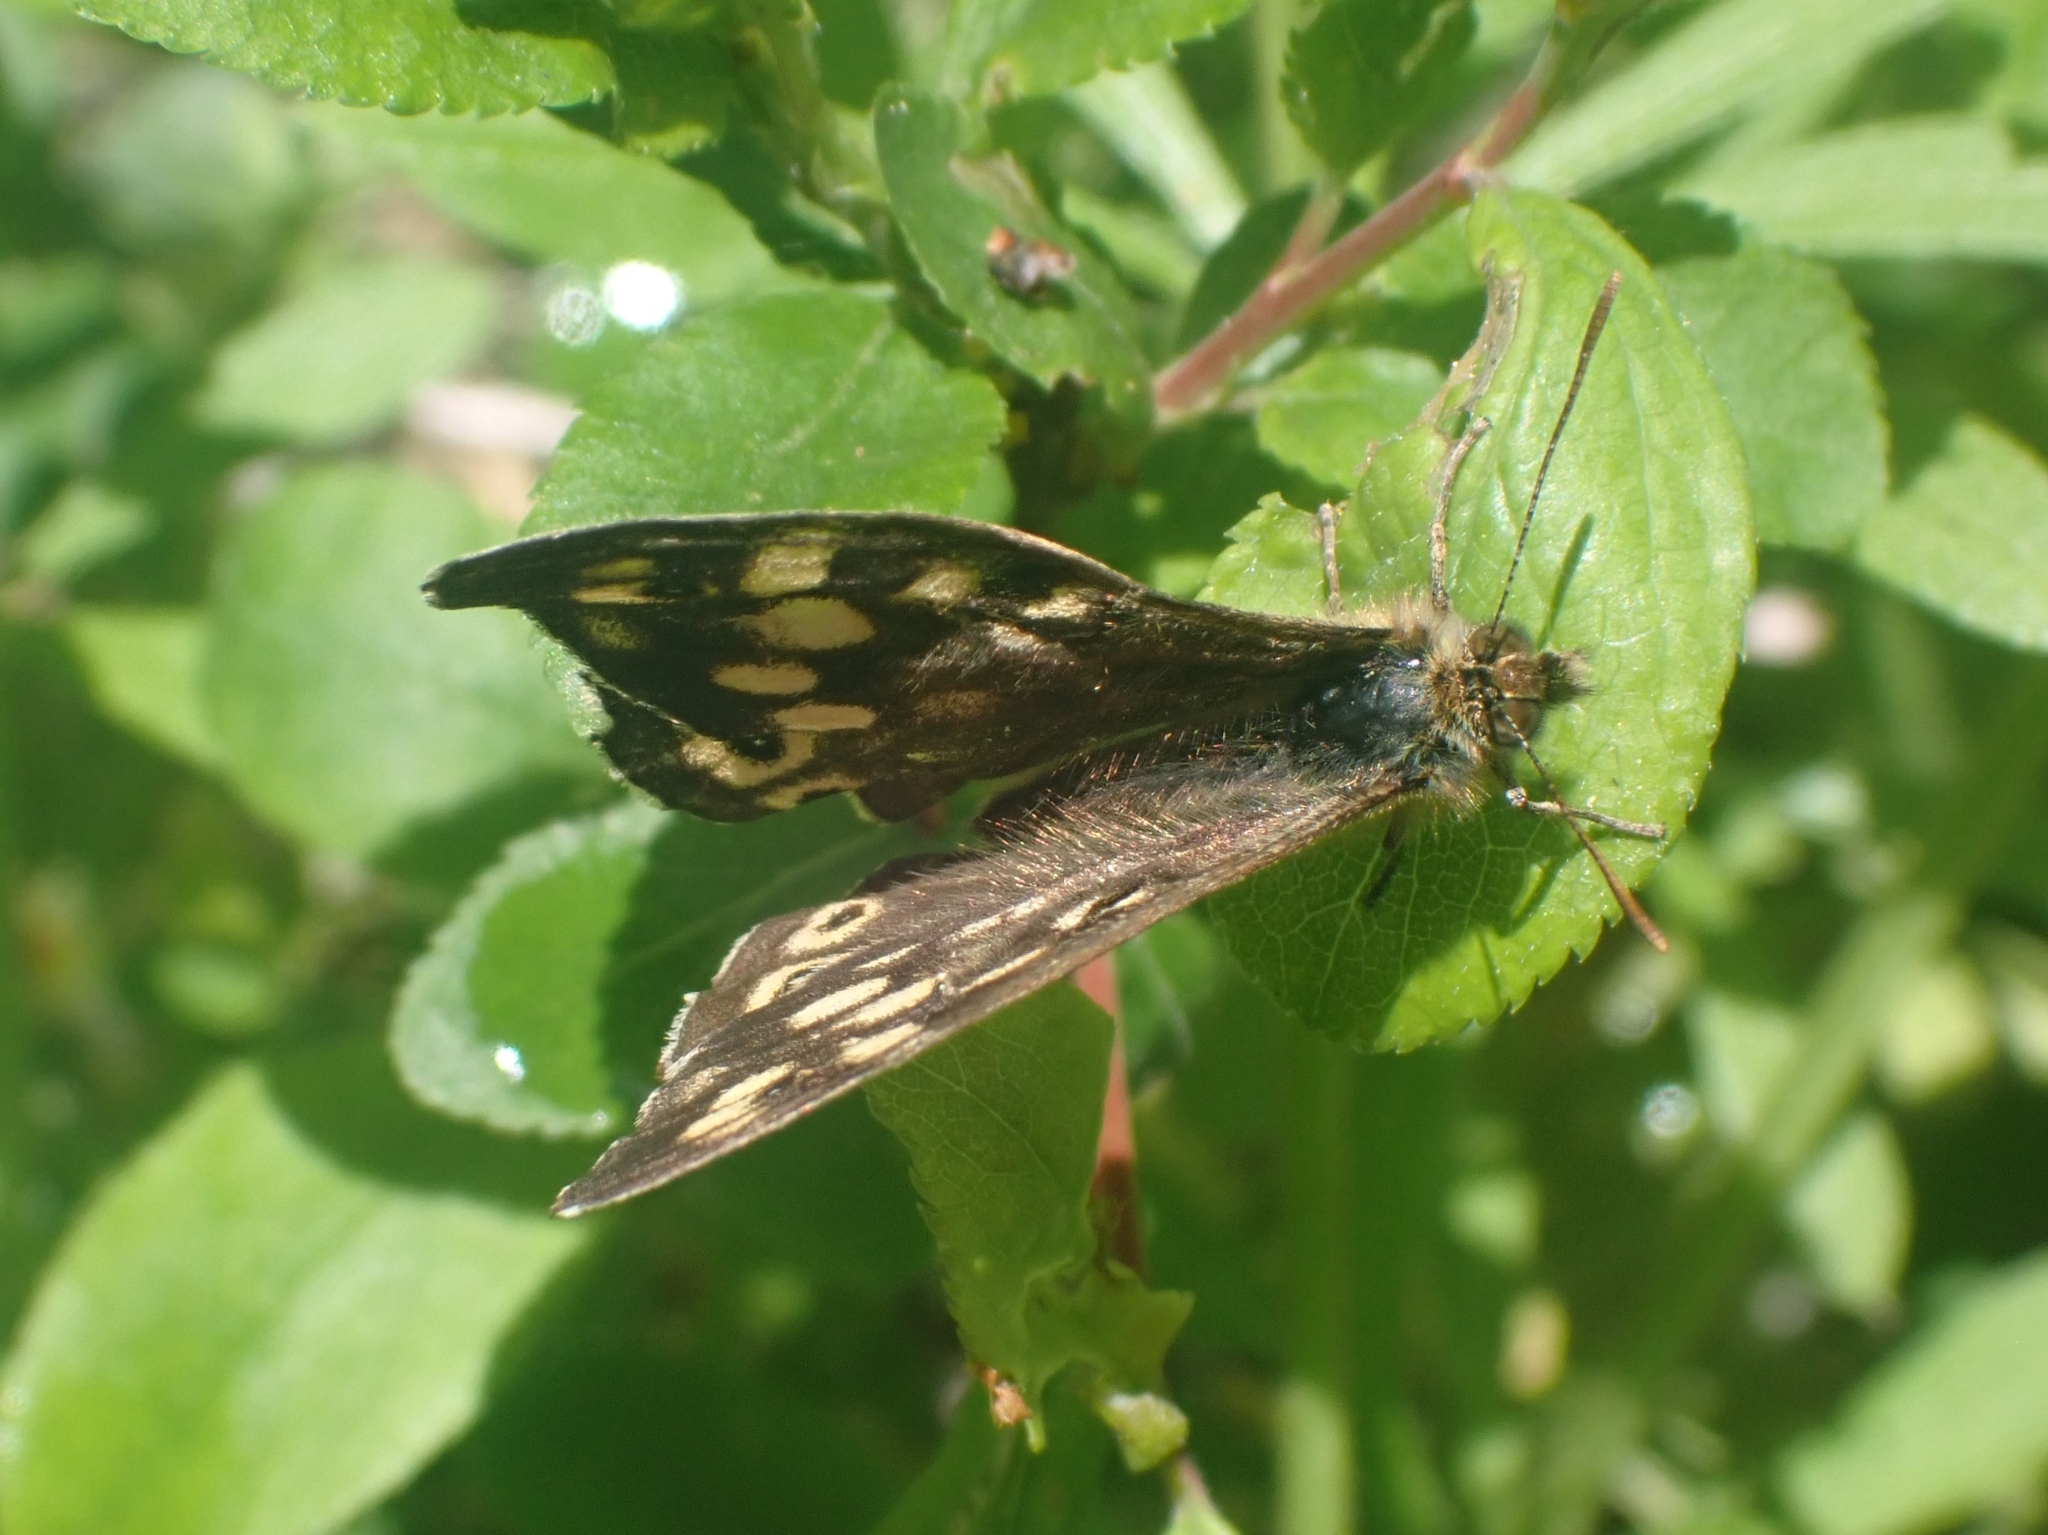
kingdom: Animalia
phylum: Arthropoda
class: Insecta
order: Lepidoptera
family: Nymphalidae
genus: Pararge
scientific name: Pararge aegeria
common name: Speckled wood
